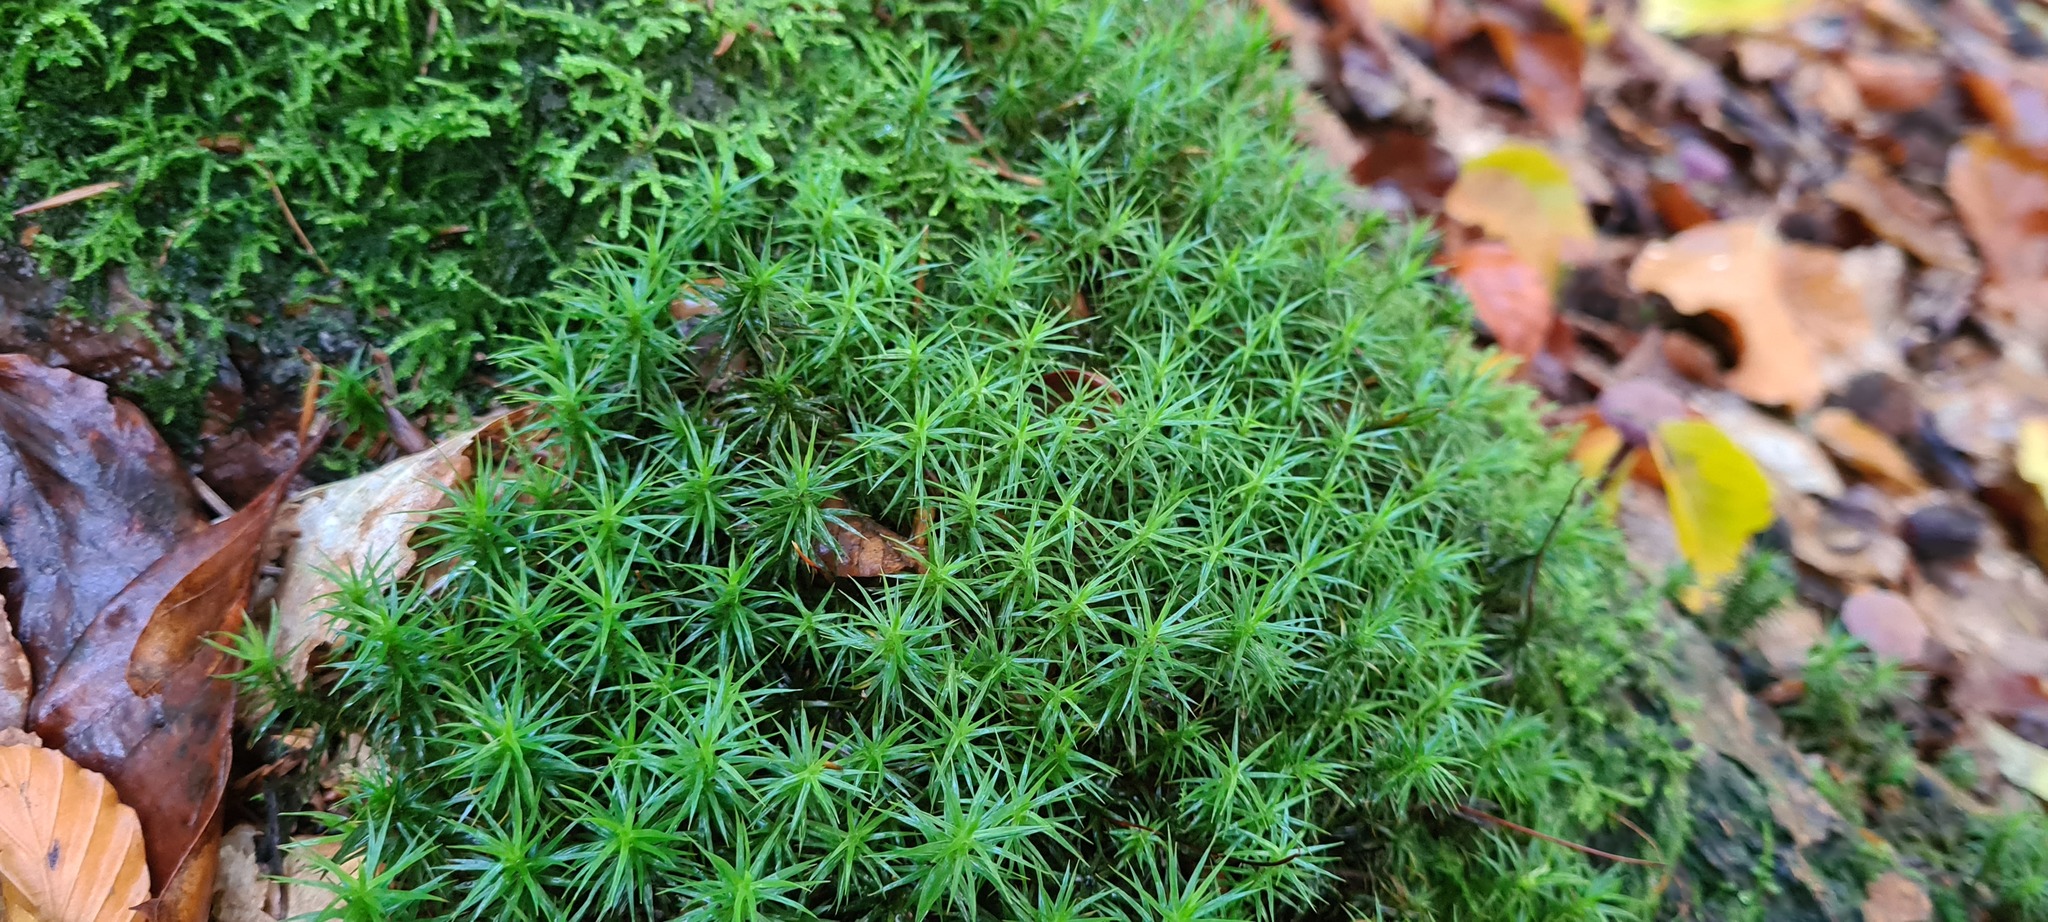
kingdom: Plantae
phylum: Bryophyta
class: Polytrichopsida
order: Polytrichales
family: Polytrichaceae
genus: Polytrichum
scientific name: Polytrichum formosum
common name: Bank haircap moss
